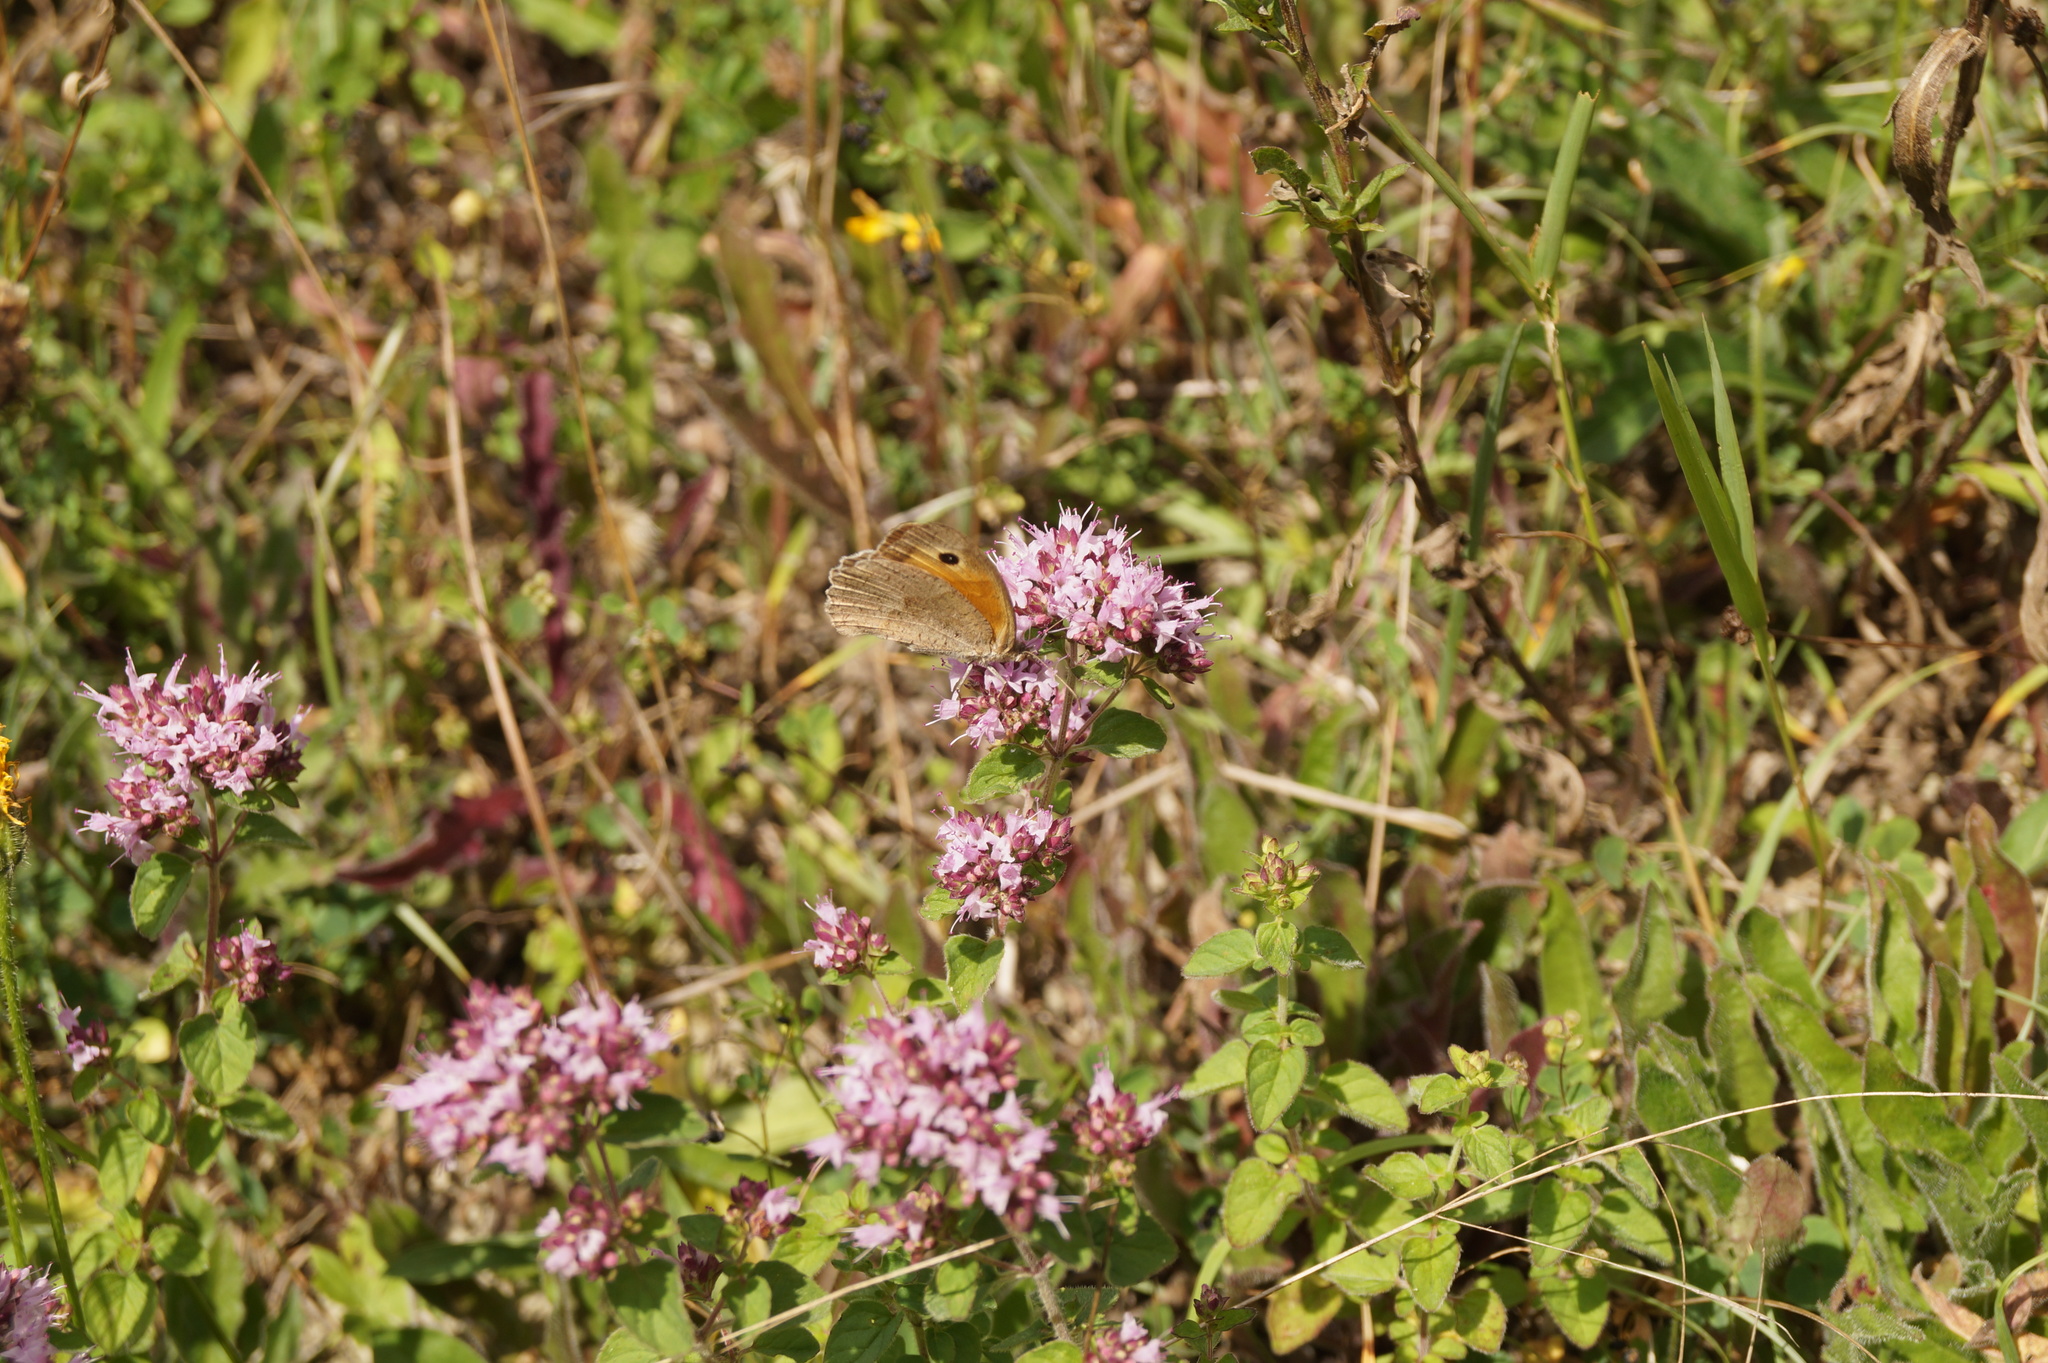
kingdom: Animalia
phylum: Arthropoda
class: Insecta
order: Lepidoptera
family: Nymphalidae
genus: Maniola
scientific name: Maniola jurtina
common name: Meadow brown
